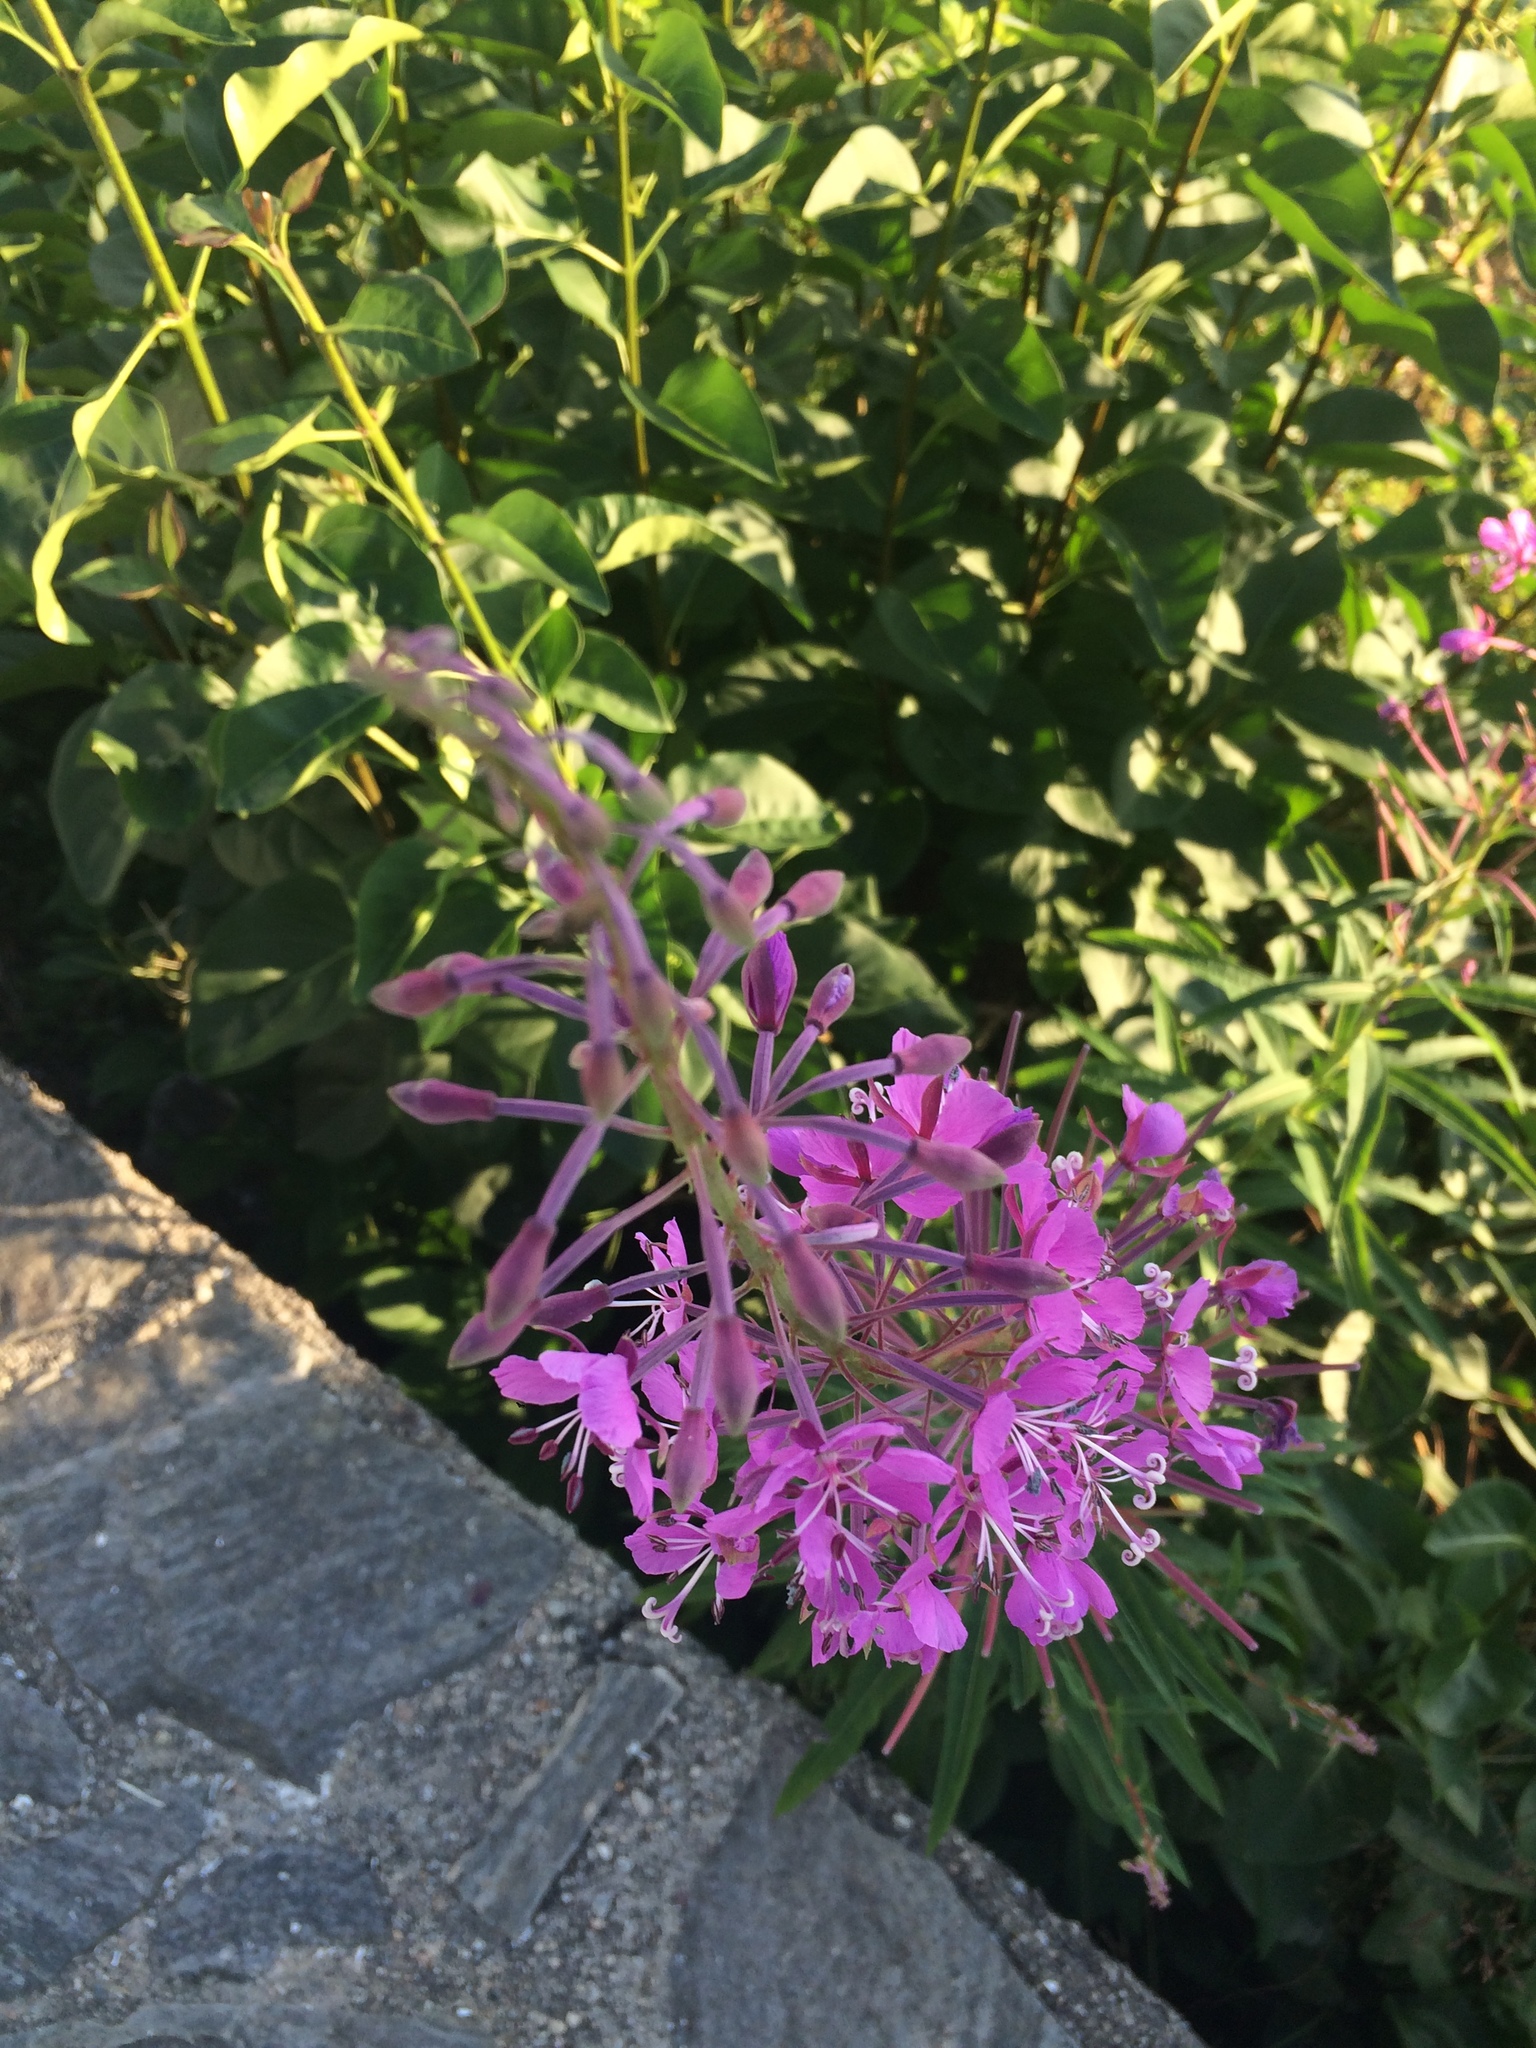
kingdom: Plantae
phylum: Tracheophyta
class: Magnoliopsida
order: Myrtales
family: Onagraceae
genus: Chamaenerion
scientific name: Chamaenerion angustifolium
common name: Fireweed
